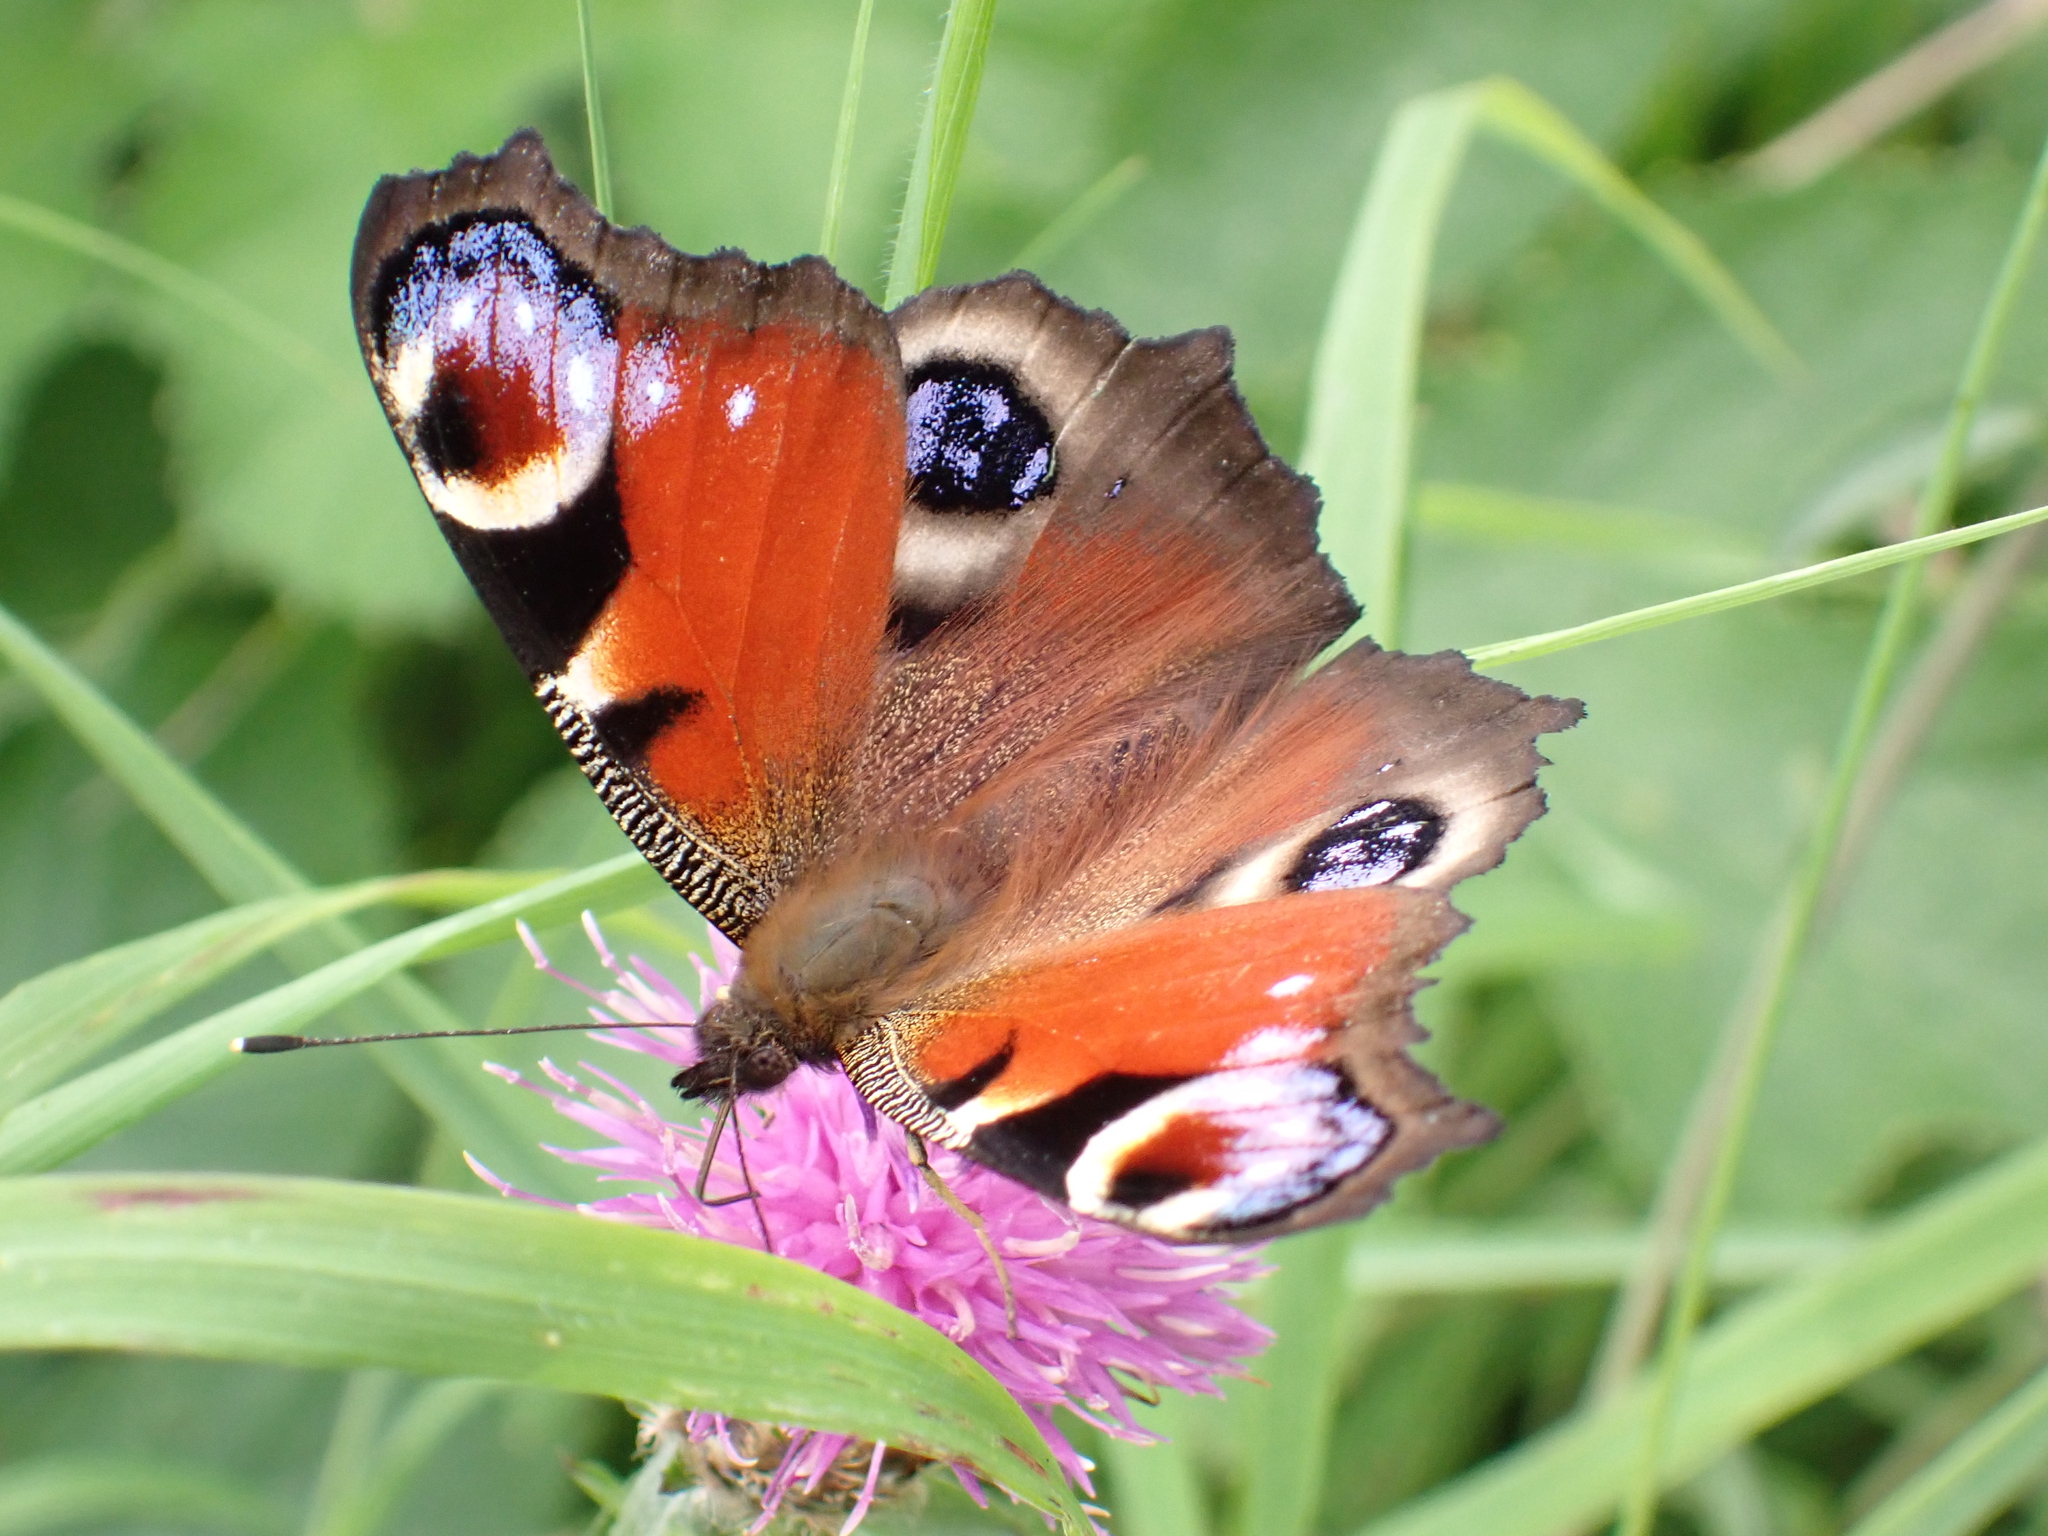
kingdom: Animalia
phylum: Arthropoda
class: Insecta
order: Lepidoptera
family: Nymphalidae
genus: Aglais
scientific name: Aglais io
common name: Peacock
